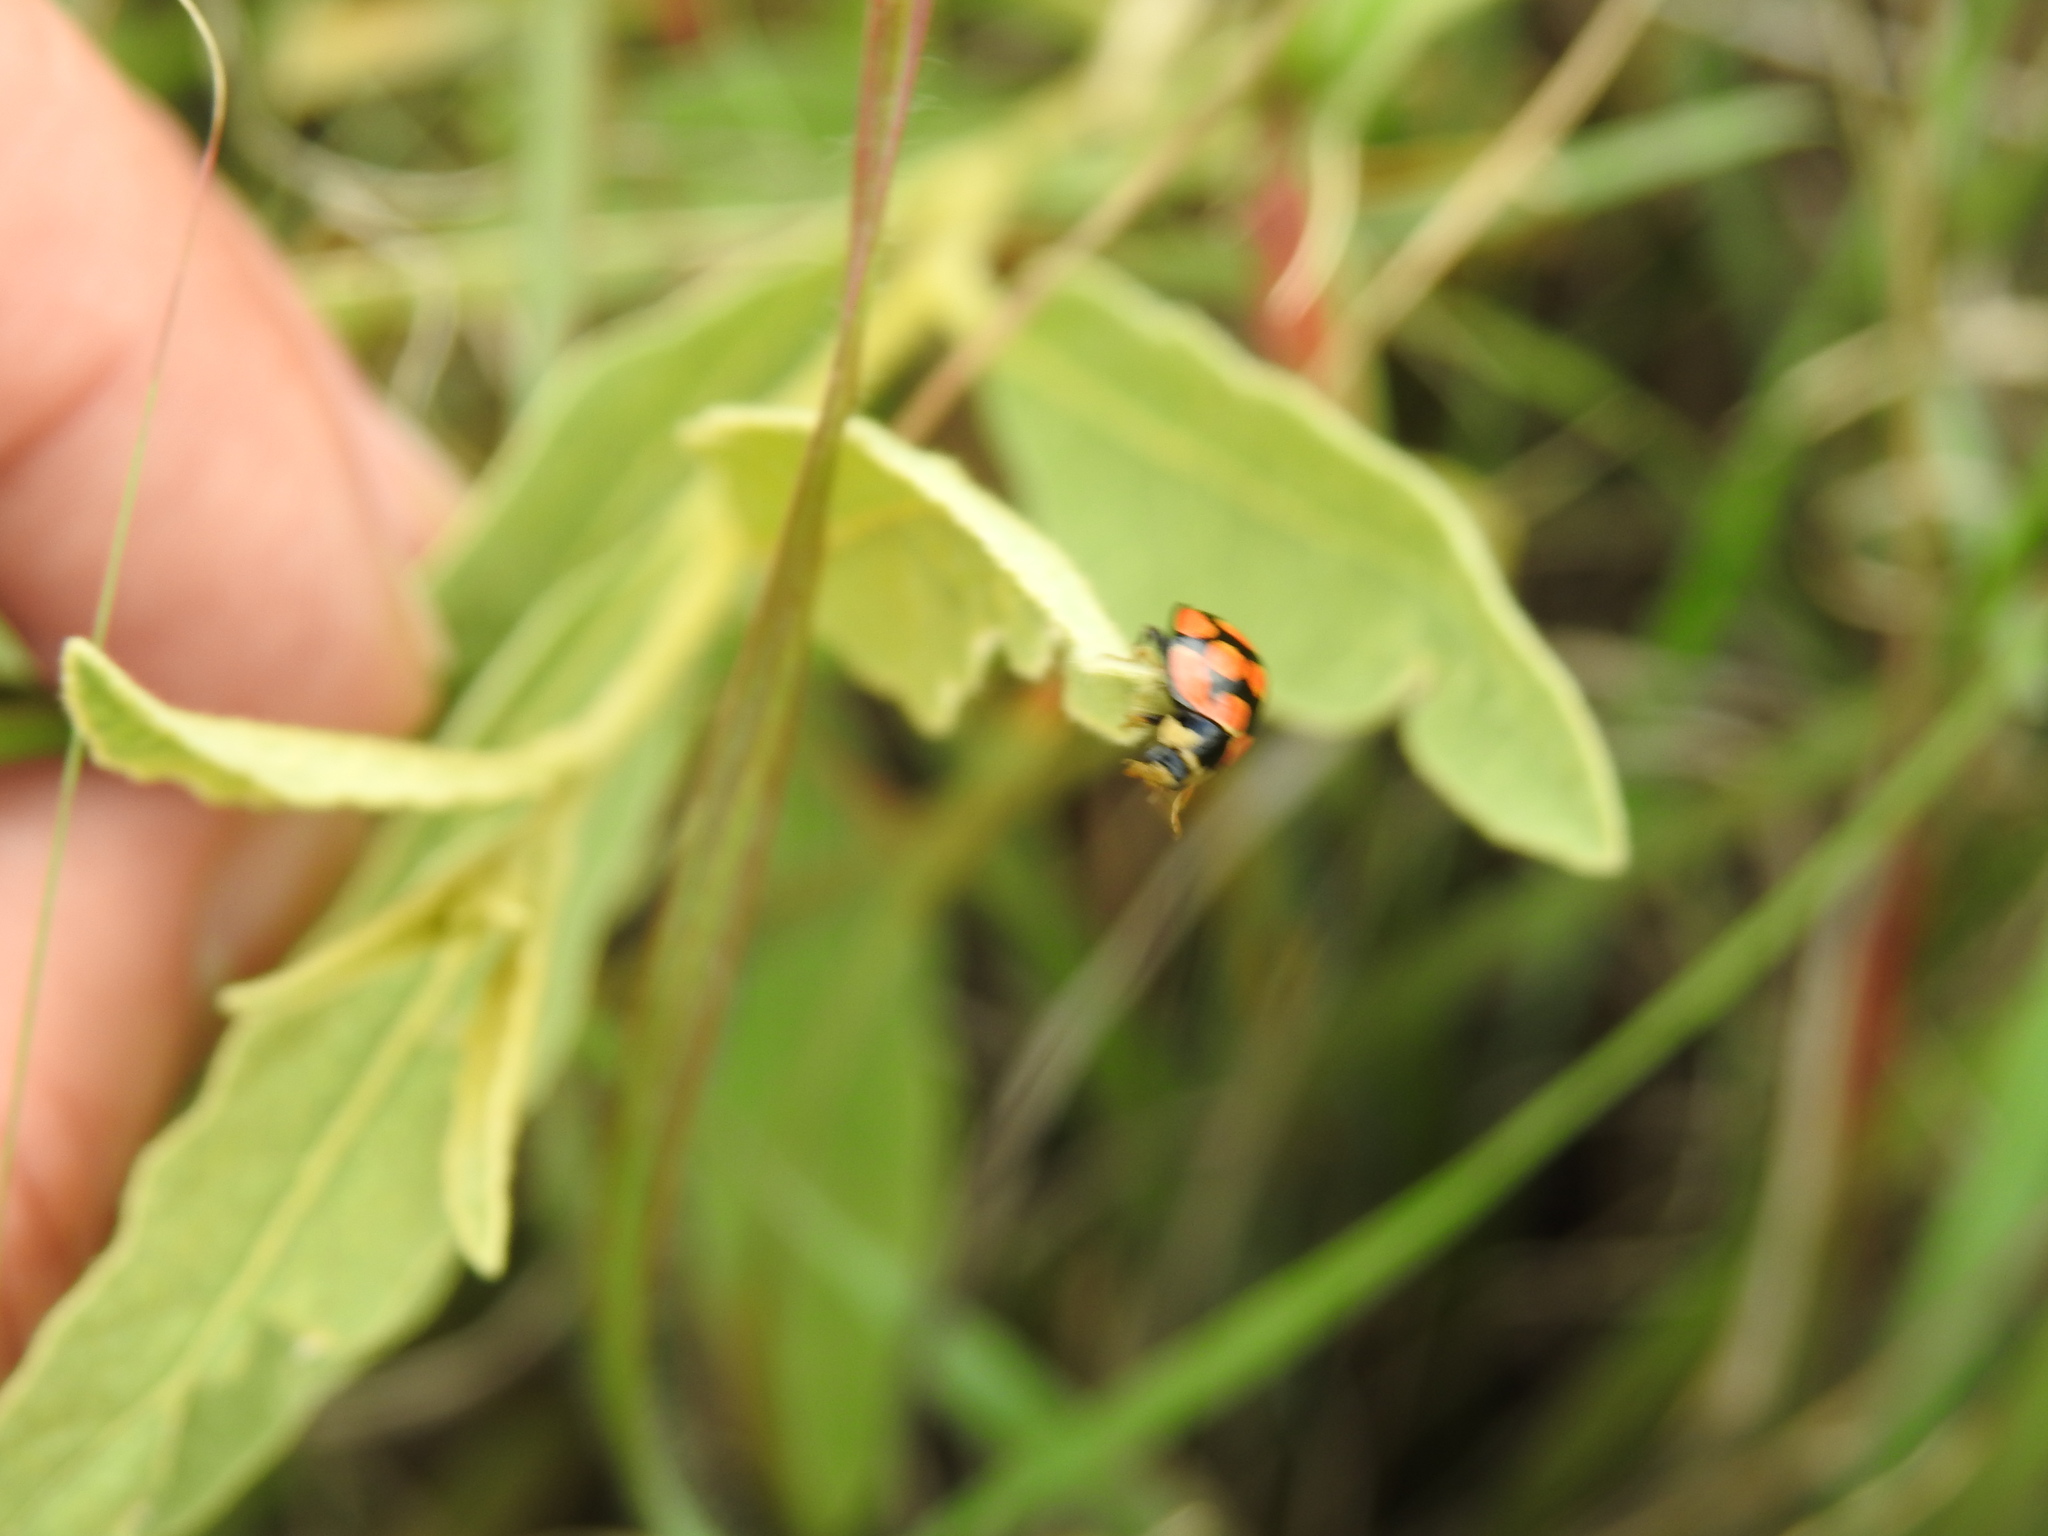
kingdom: Animalia
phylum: Arthropoda
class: Insecta
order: Coleoptera
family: Coccinellidae
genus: Cheilomenes
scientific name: Cheilomenes lunata
